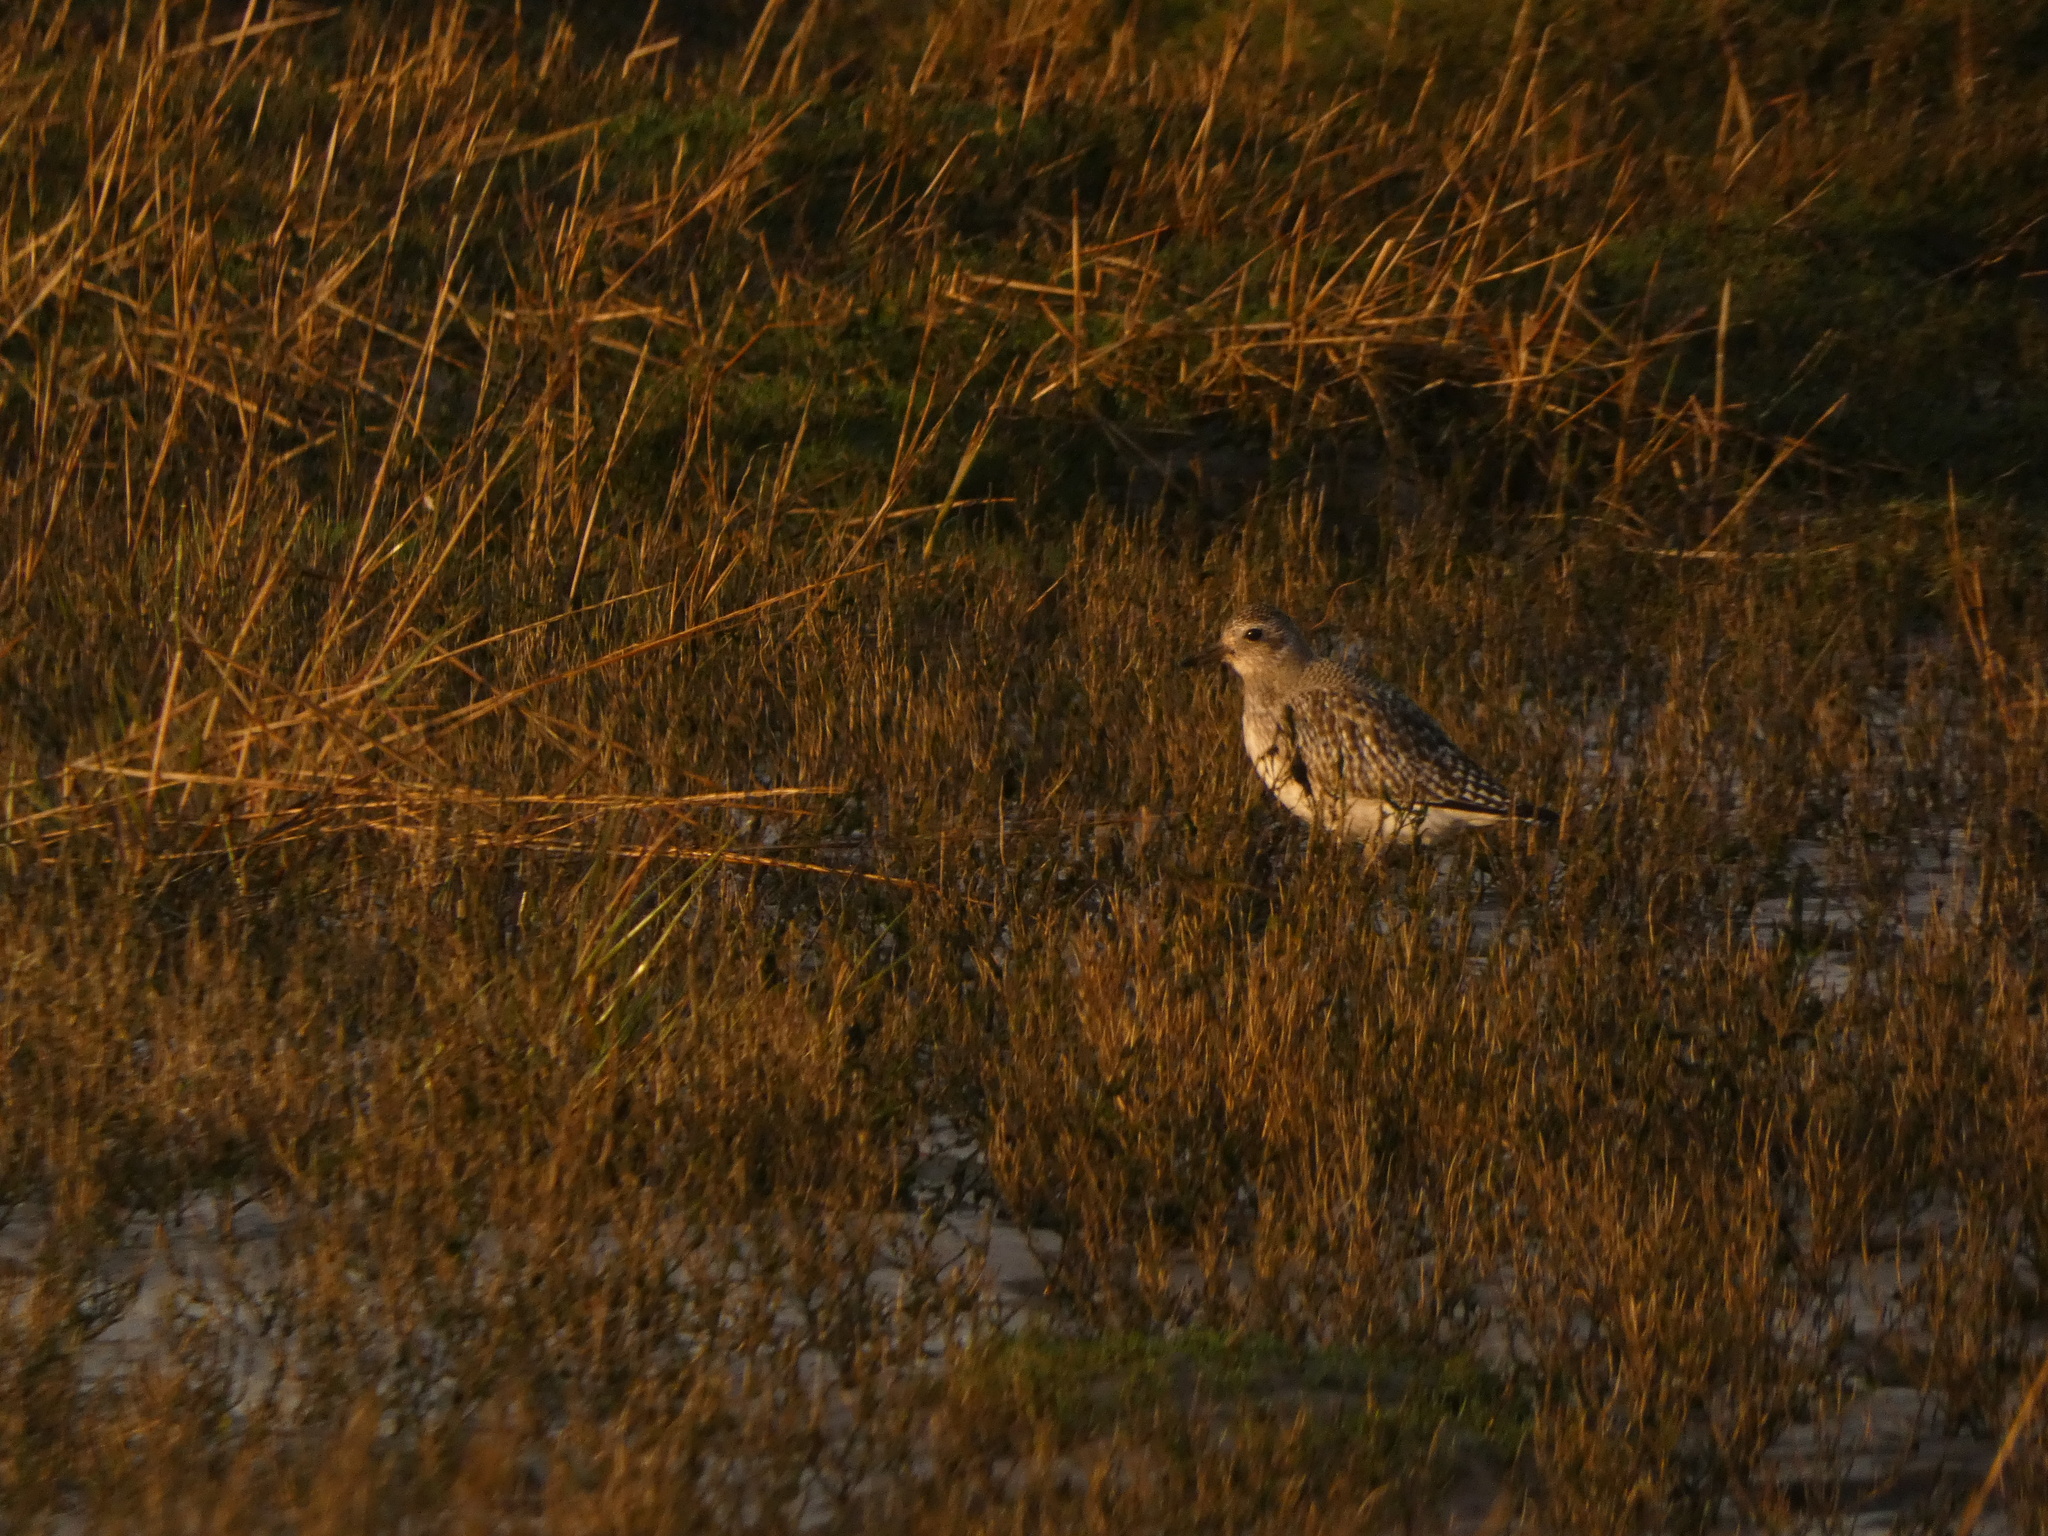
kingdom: Animalia
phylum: Chordata
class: Aves
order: Charadriiformes
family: Charadriidae
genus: Pluvialis
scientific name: Pluvialis squatarola
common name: Grey plover
